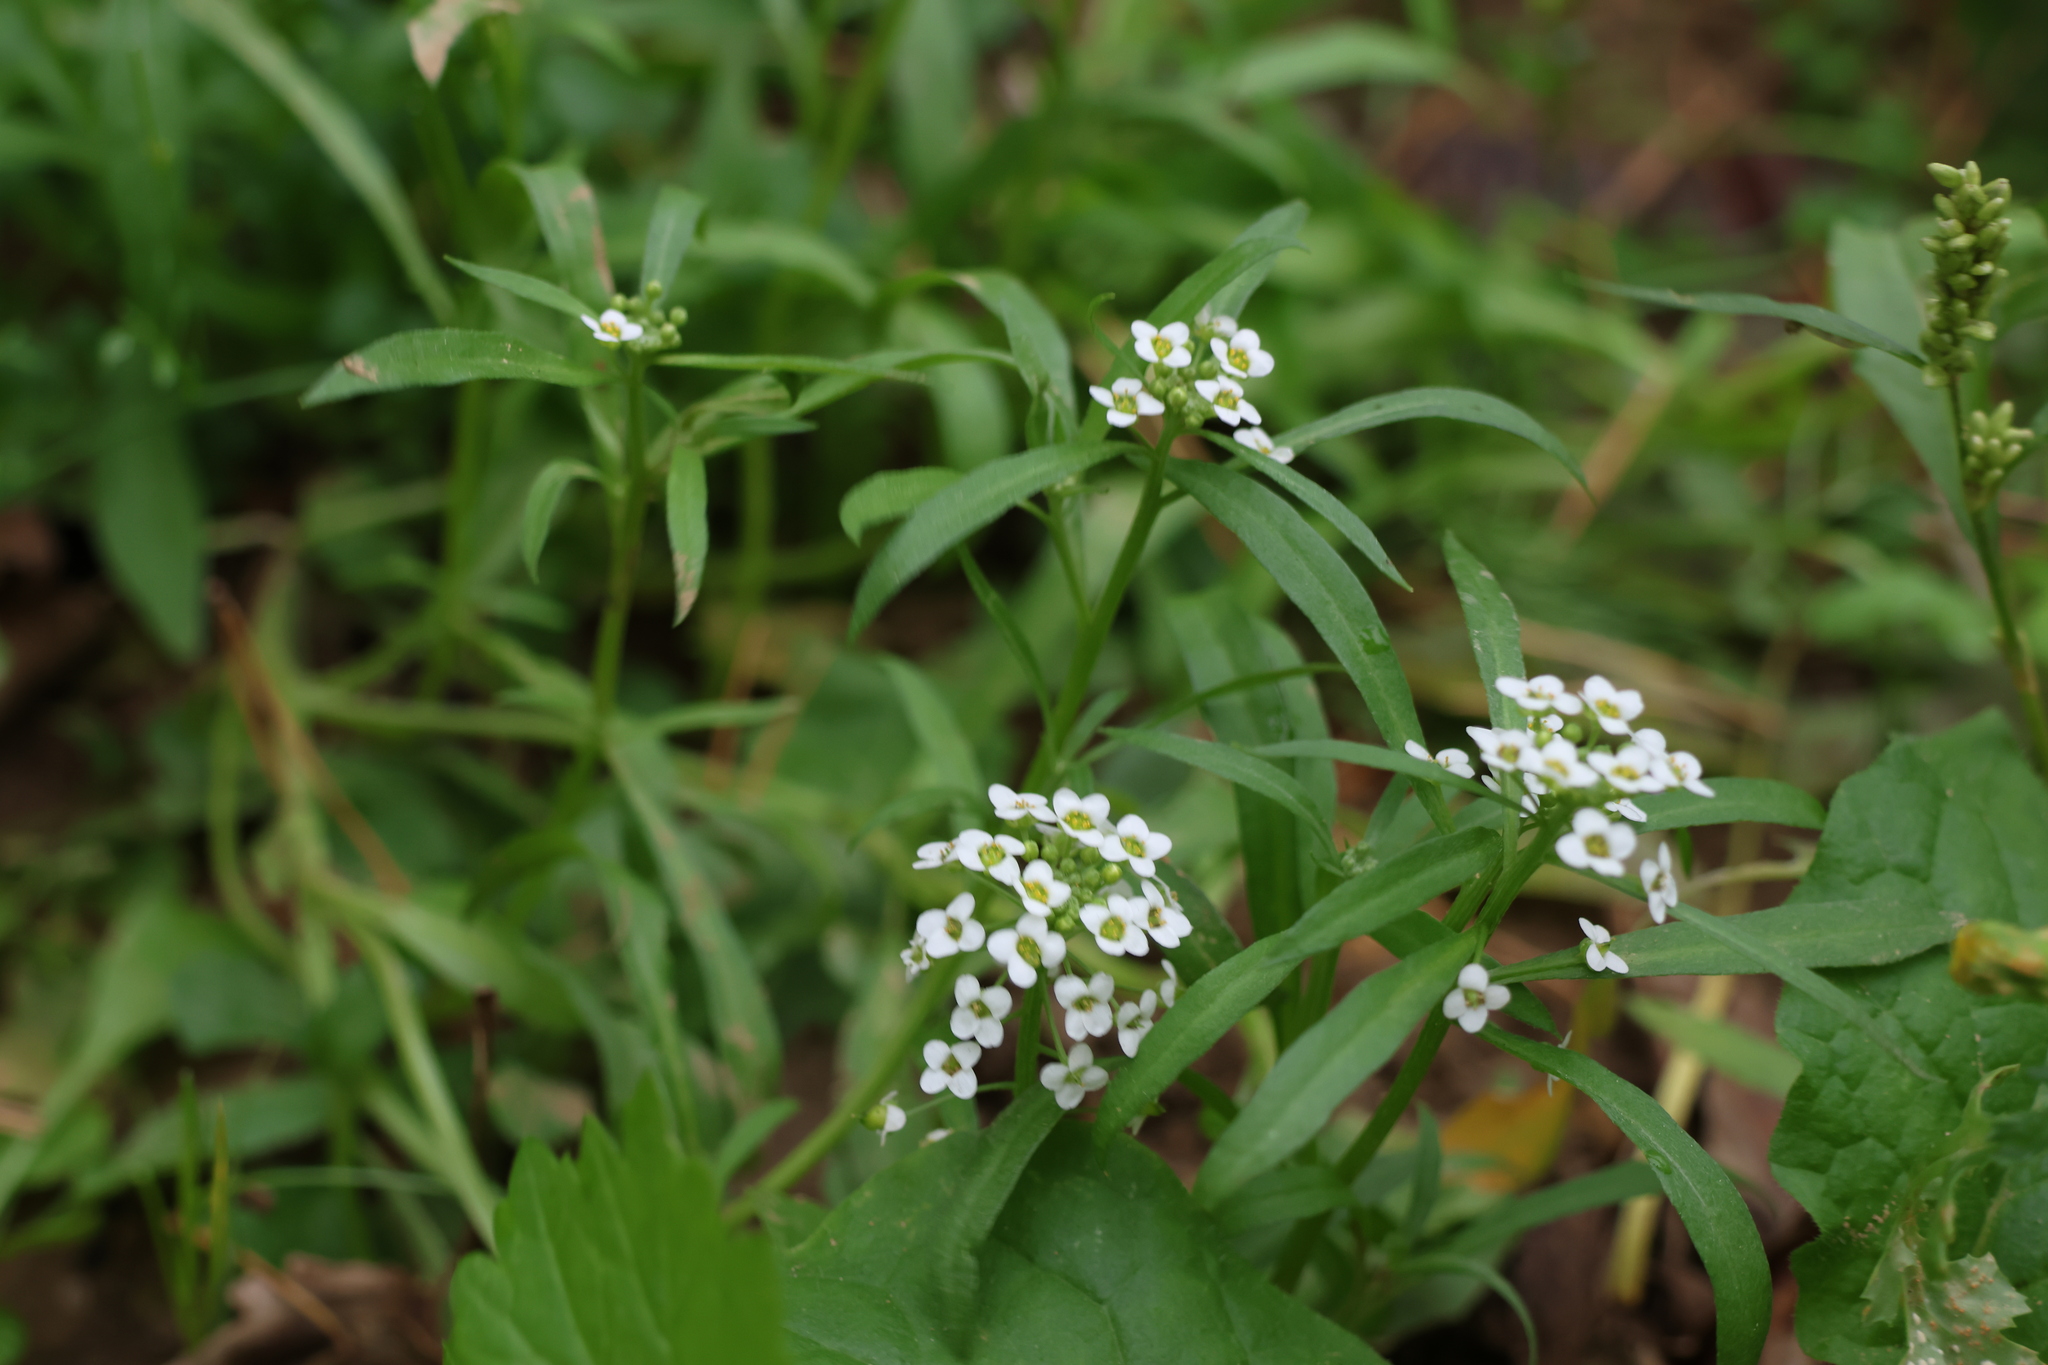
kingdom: Plantae
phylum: Tracheophyta
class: Magnoliopsida
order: Brassicales
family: Brassicaceae
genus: Lobularia
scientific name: Lobularia maritima
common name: Sweet alison
